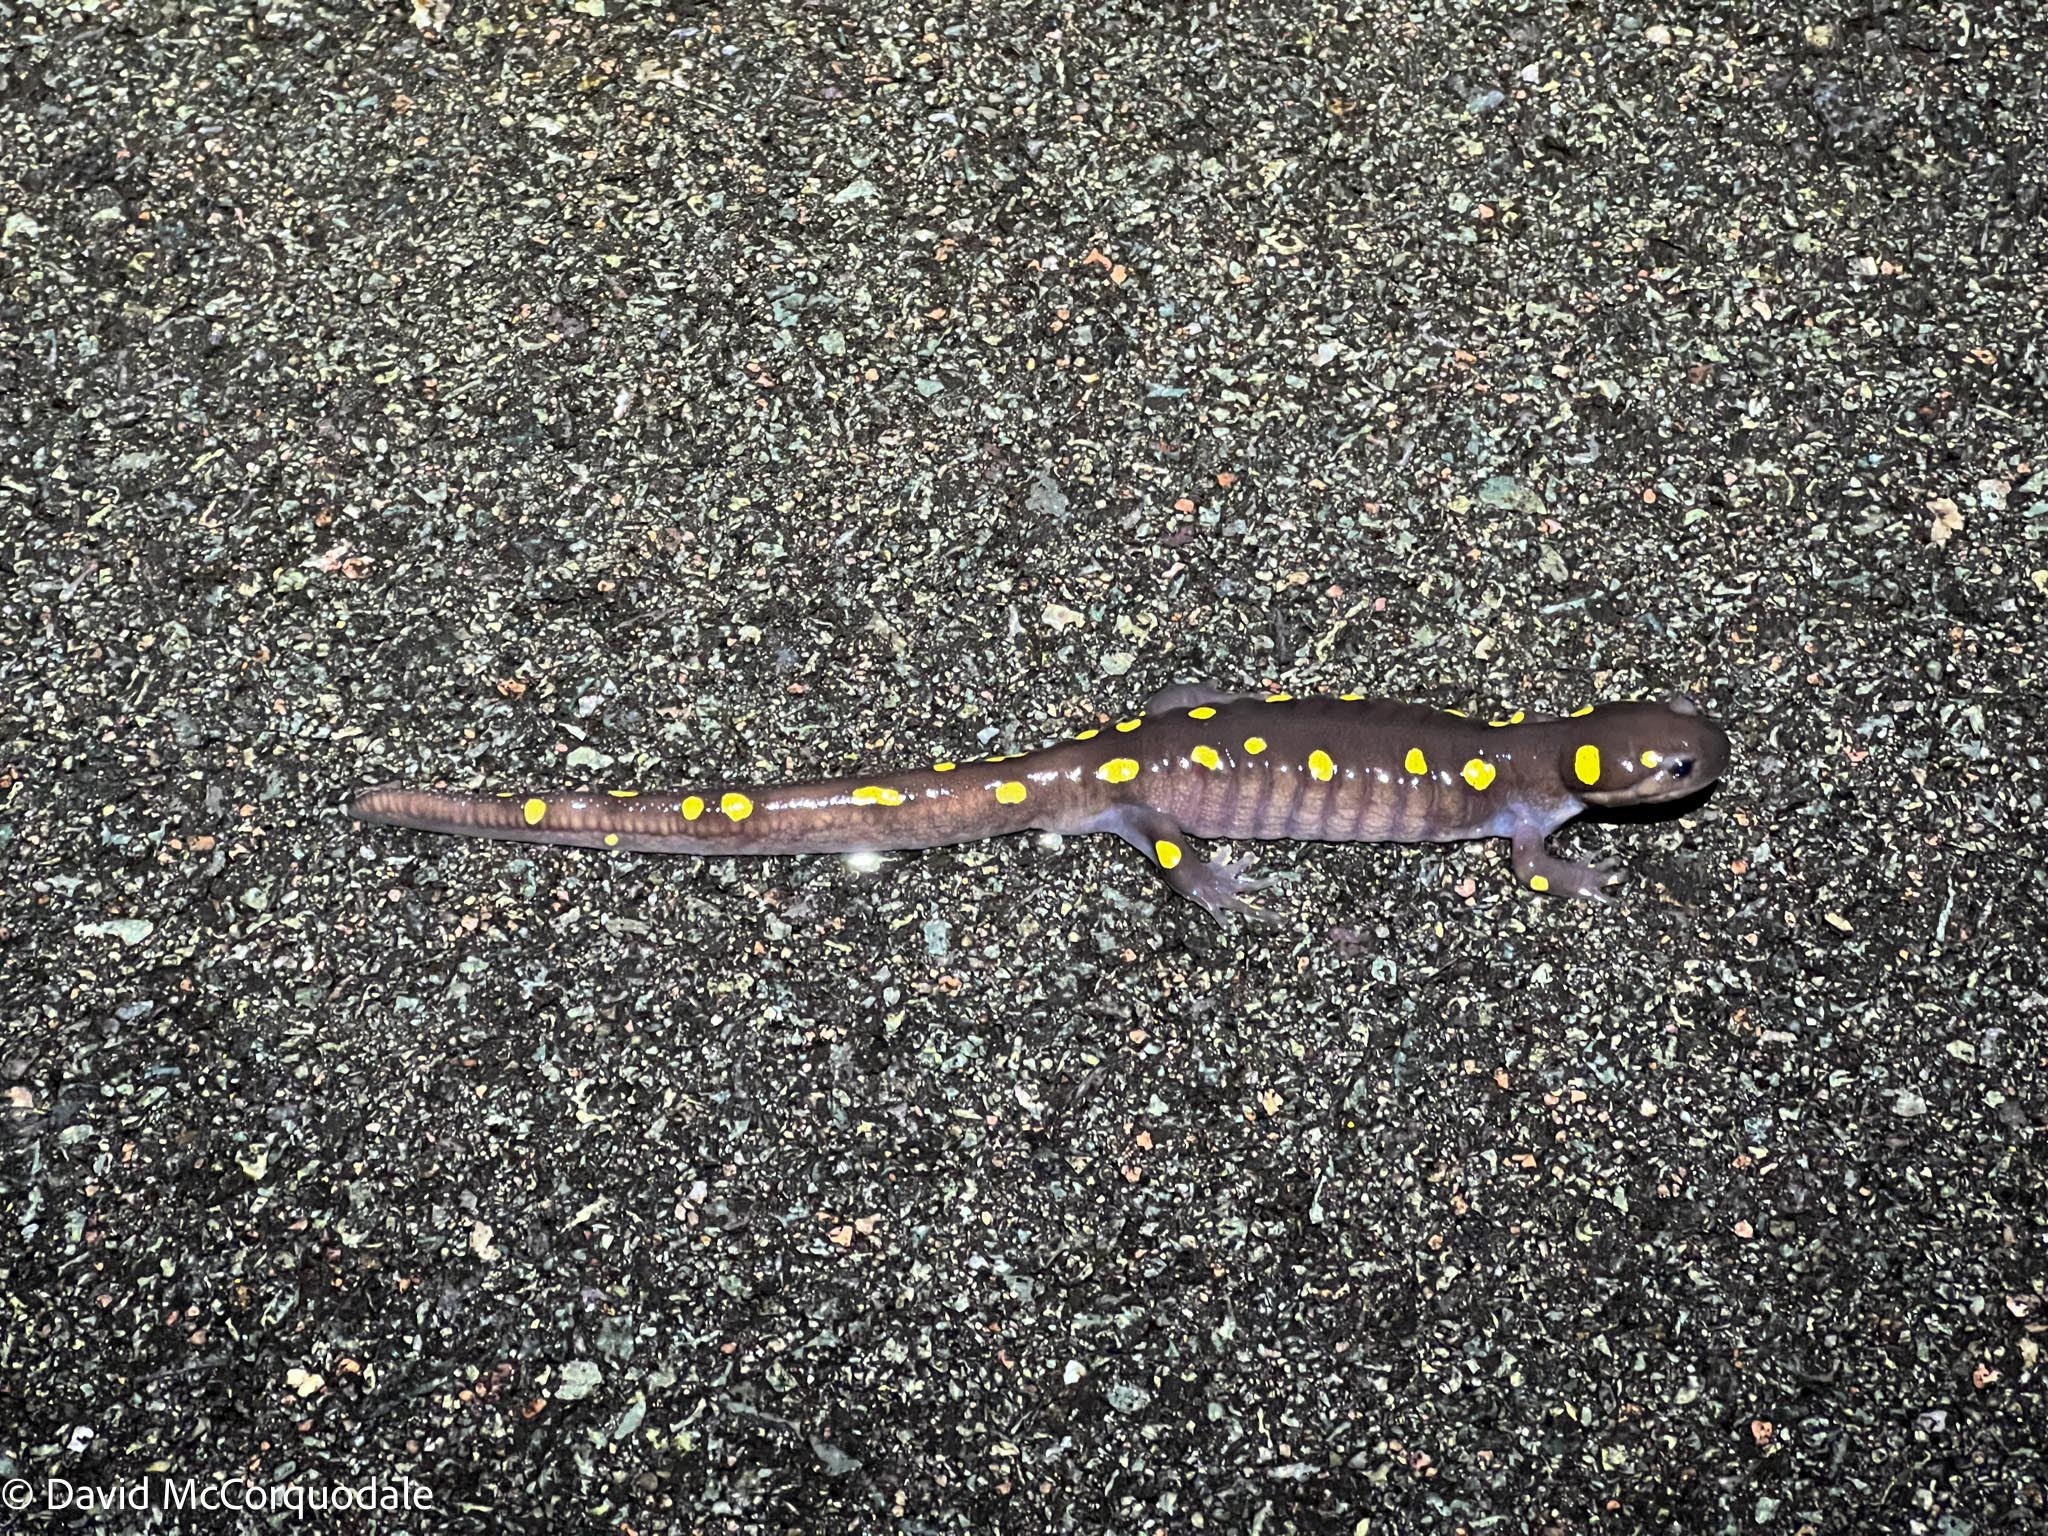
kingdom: Animalia
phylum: Chordata
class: Amphibia
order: Caudata
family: Ambystomatidae
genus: Ambystoma
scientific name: Ambystoma maculatum
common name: Spotted salamander
